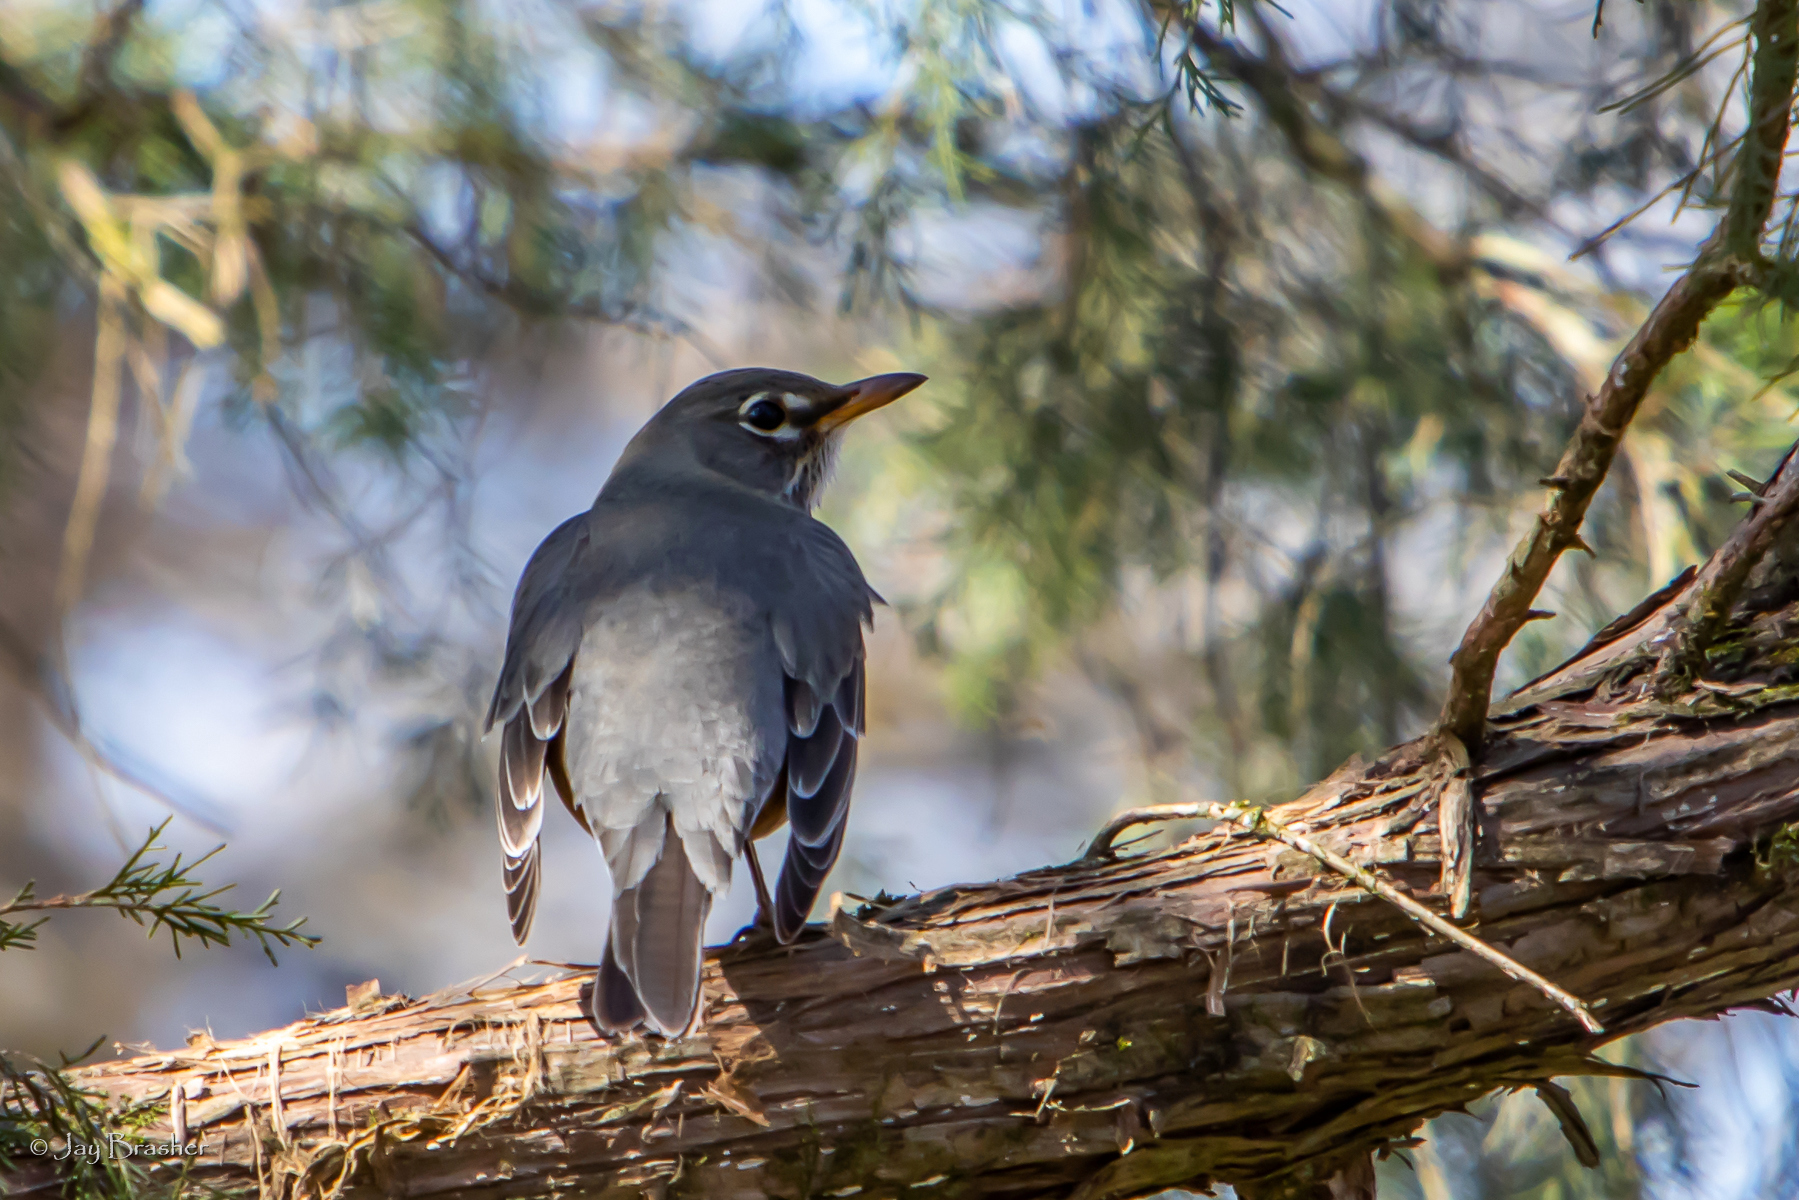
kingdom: Animalia
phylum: Chordata
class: Aves
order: Passeriformes
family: Turdidae
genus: Turdus
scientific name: Turdus migratorius
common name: American robin
